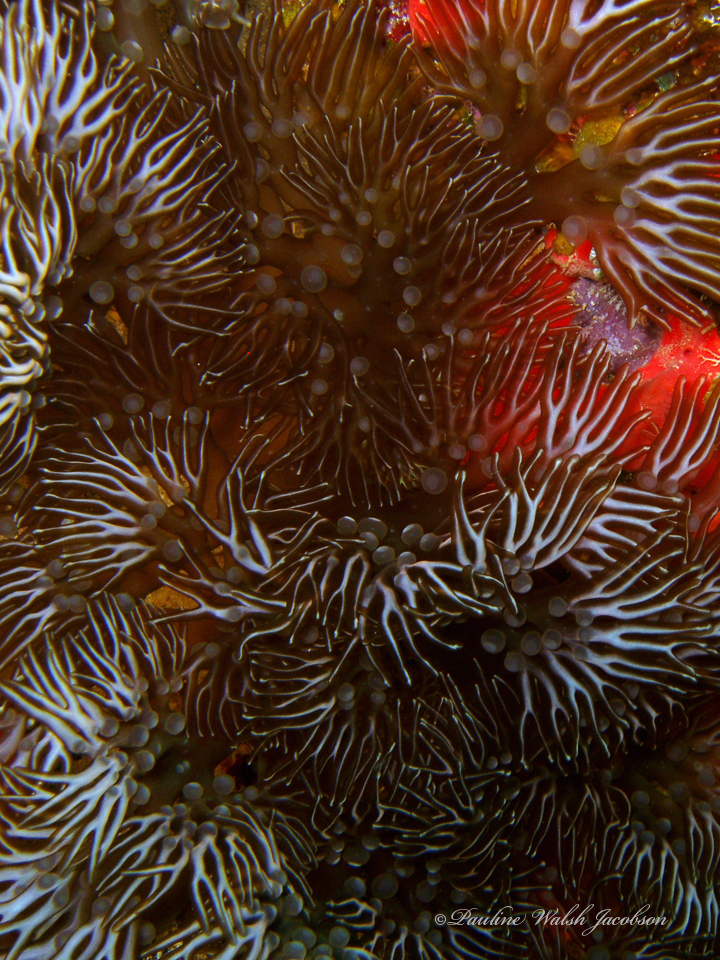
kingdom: Animalia
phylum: Cnidaria
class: Anthozoa
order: Actiniaria
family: Aliciidae
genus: Lebrunia
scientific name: Lebrunia neglecta
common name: Branching anemone
